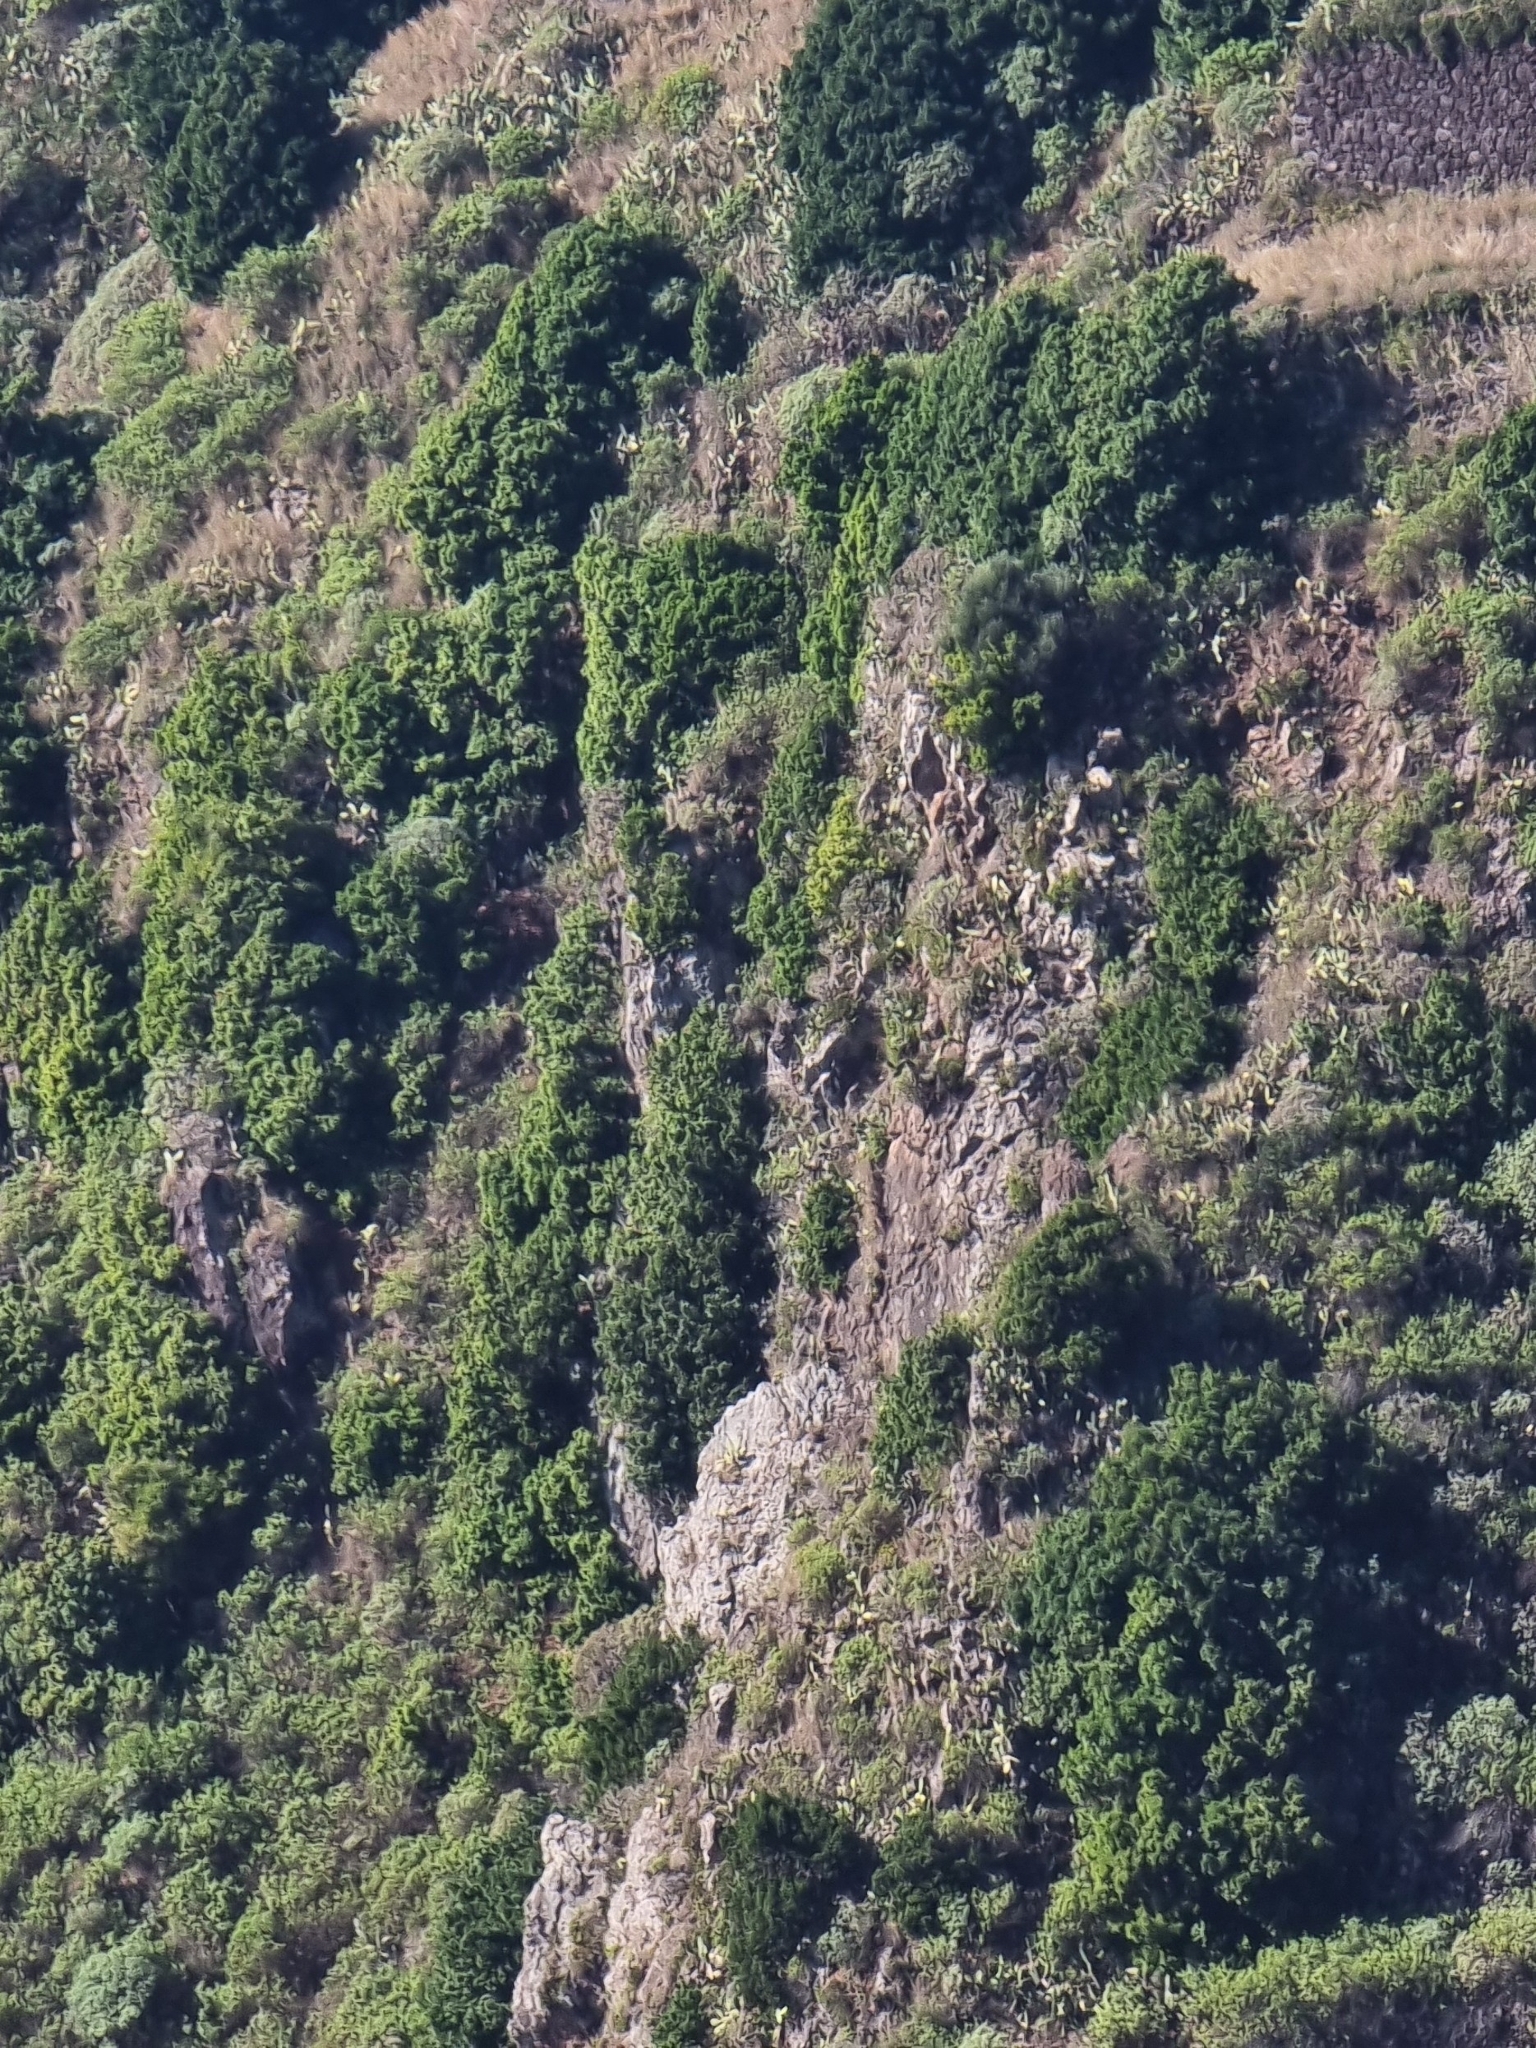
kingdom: Plantae
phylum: Tracheophyta
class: Magnoliopsida
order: Laurales
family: Lauraceae
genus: Apollonias
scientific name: Apollonias barbujana
